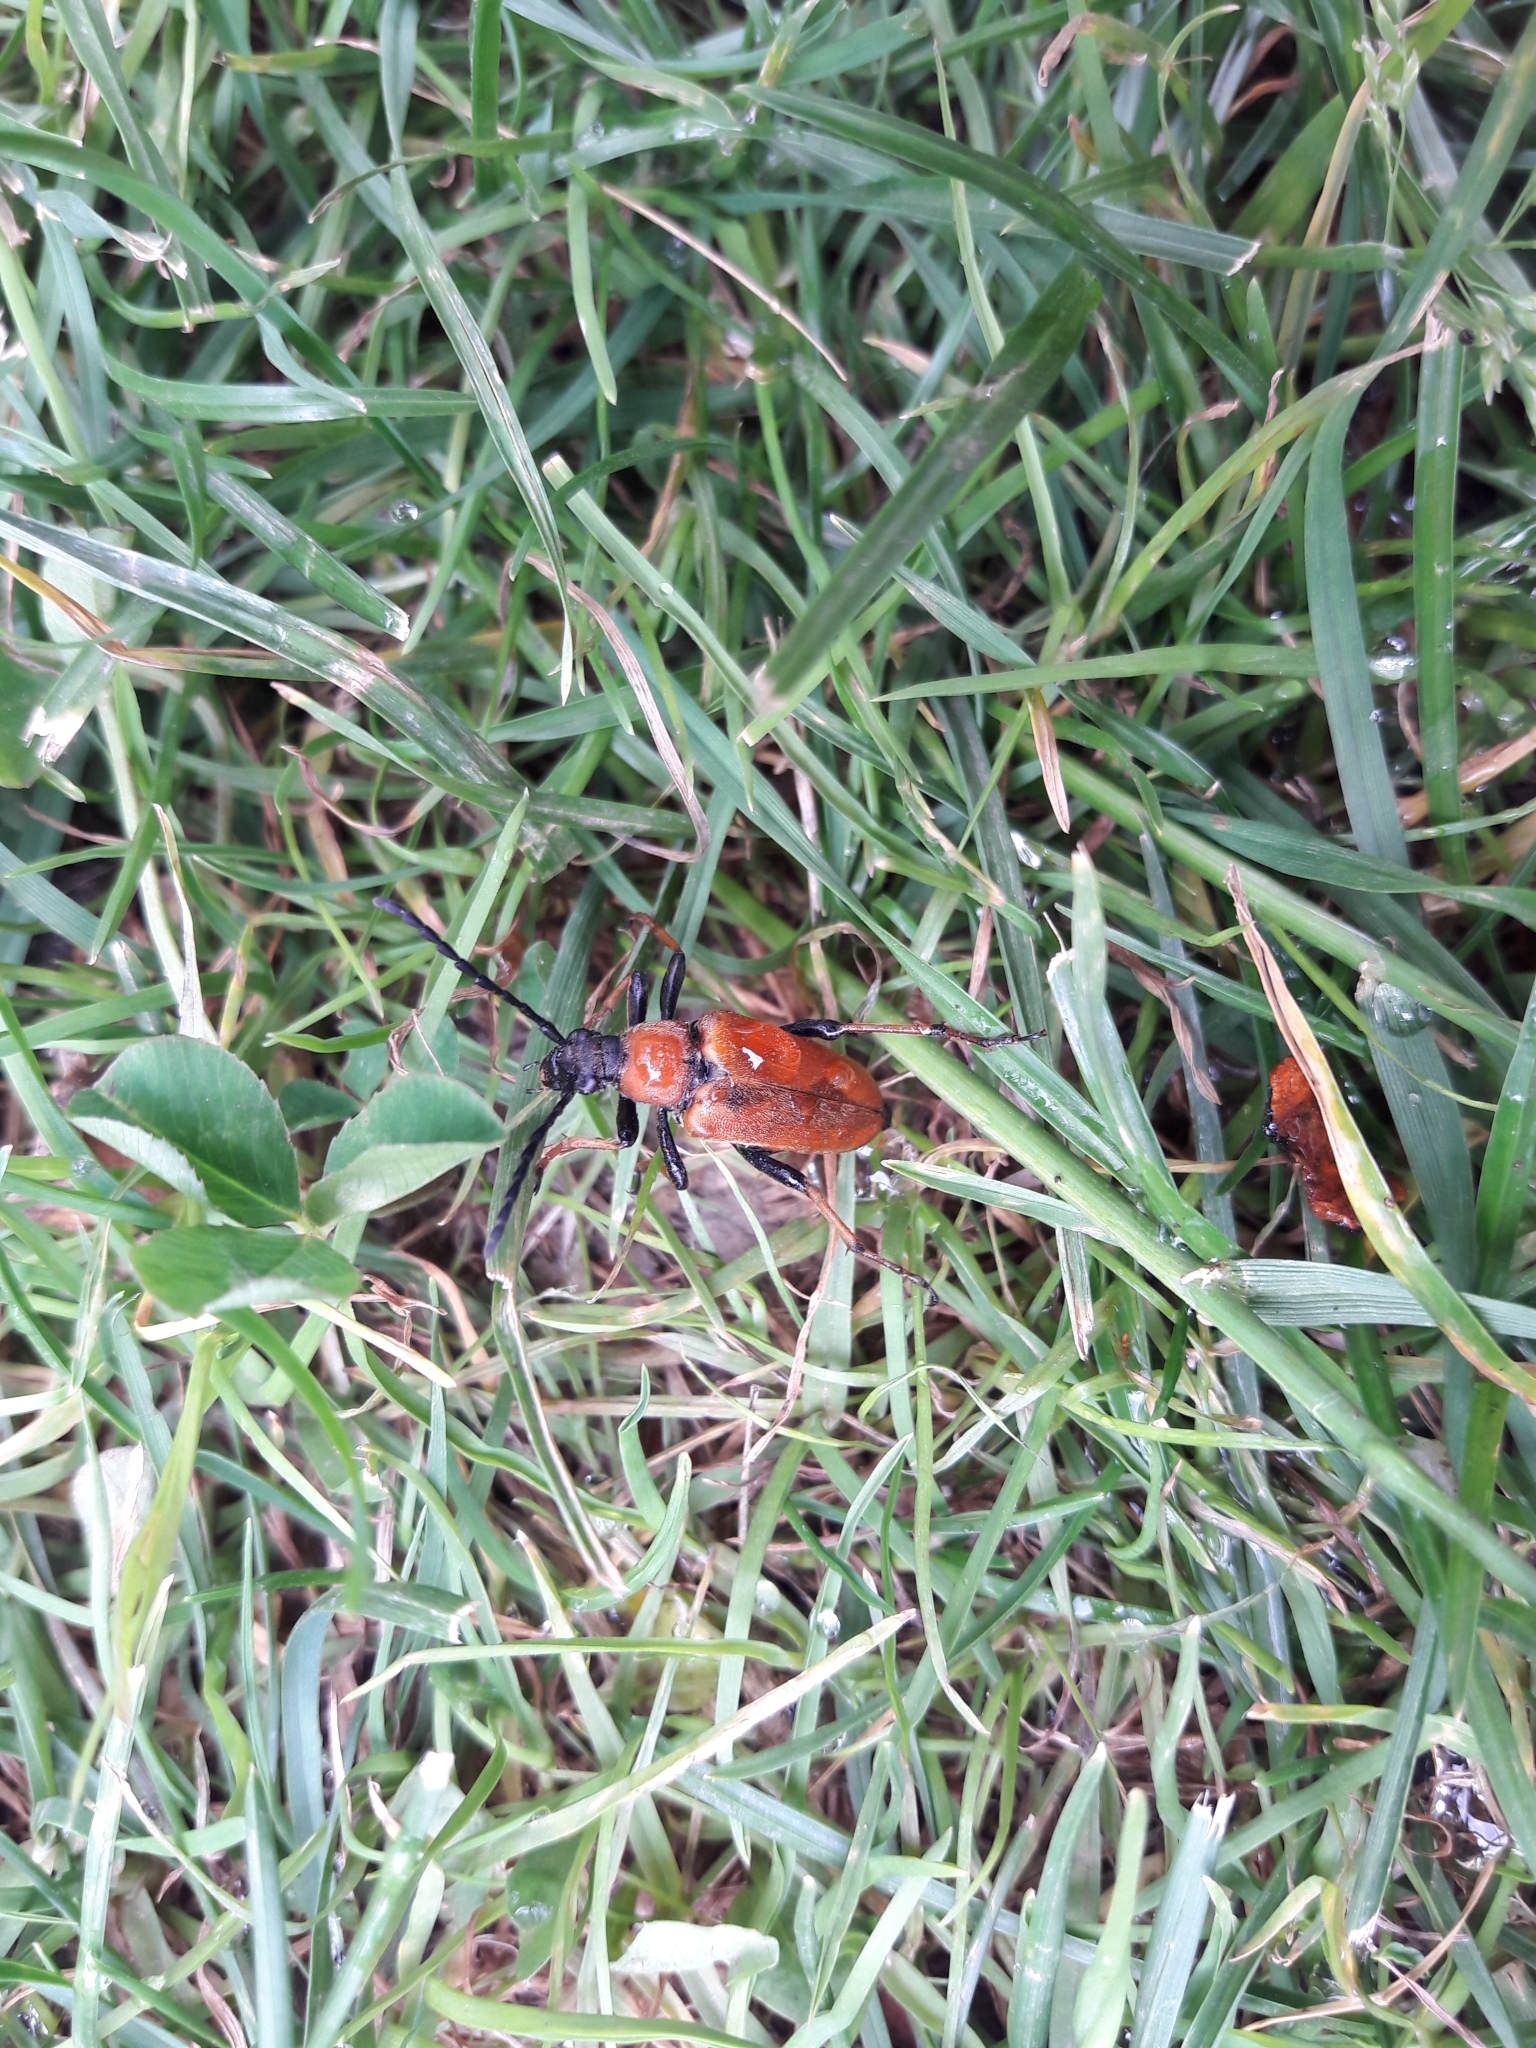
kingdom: Animalia
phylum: Arthropoda
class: Insecta
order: Coleoptera
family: Cerambycidae
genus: Stictoleptura
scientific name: Stictoleptura rubra
